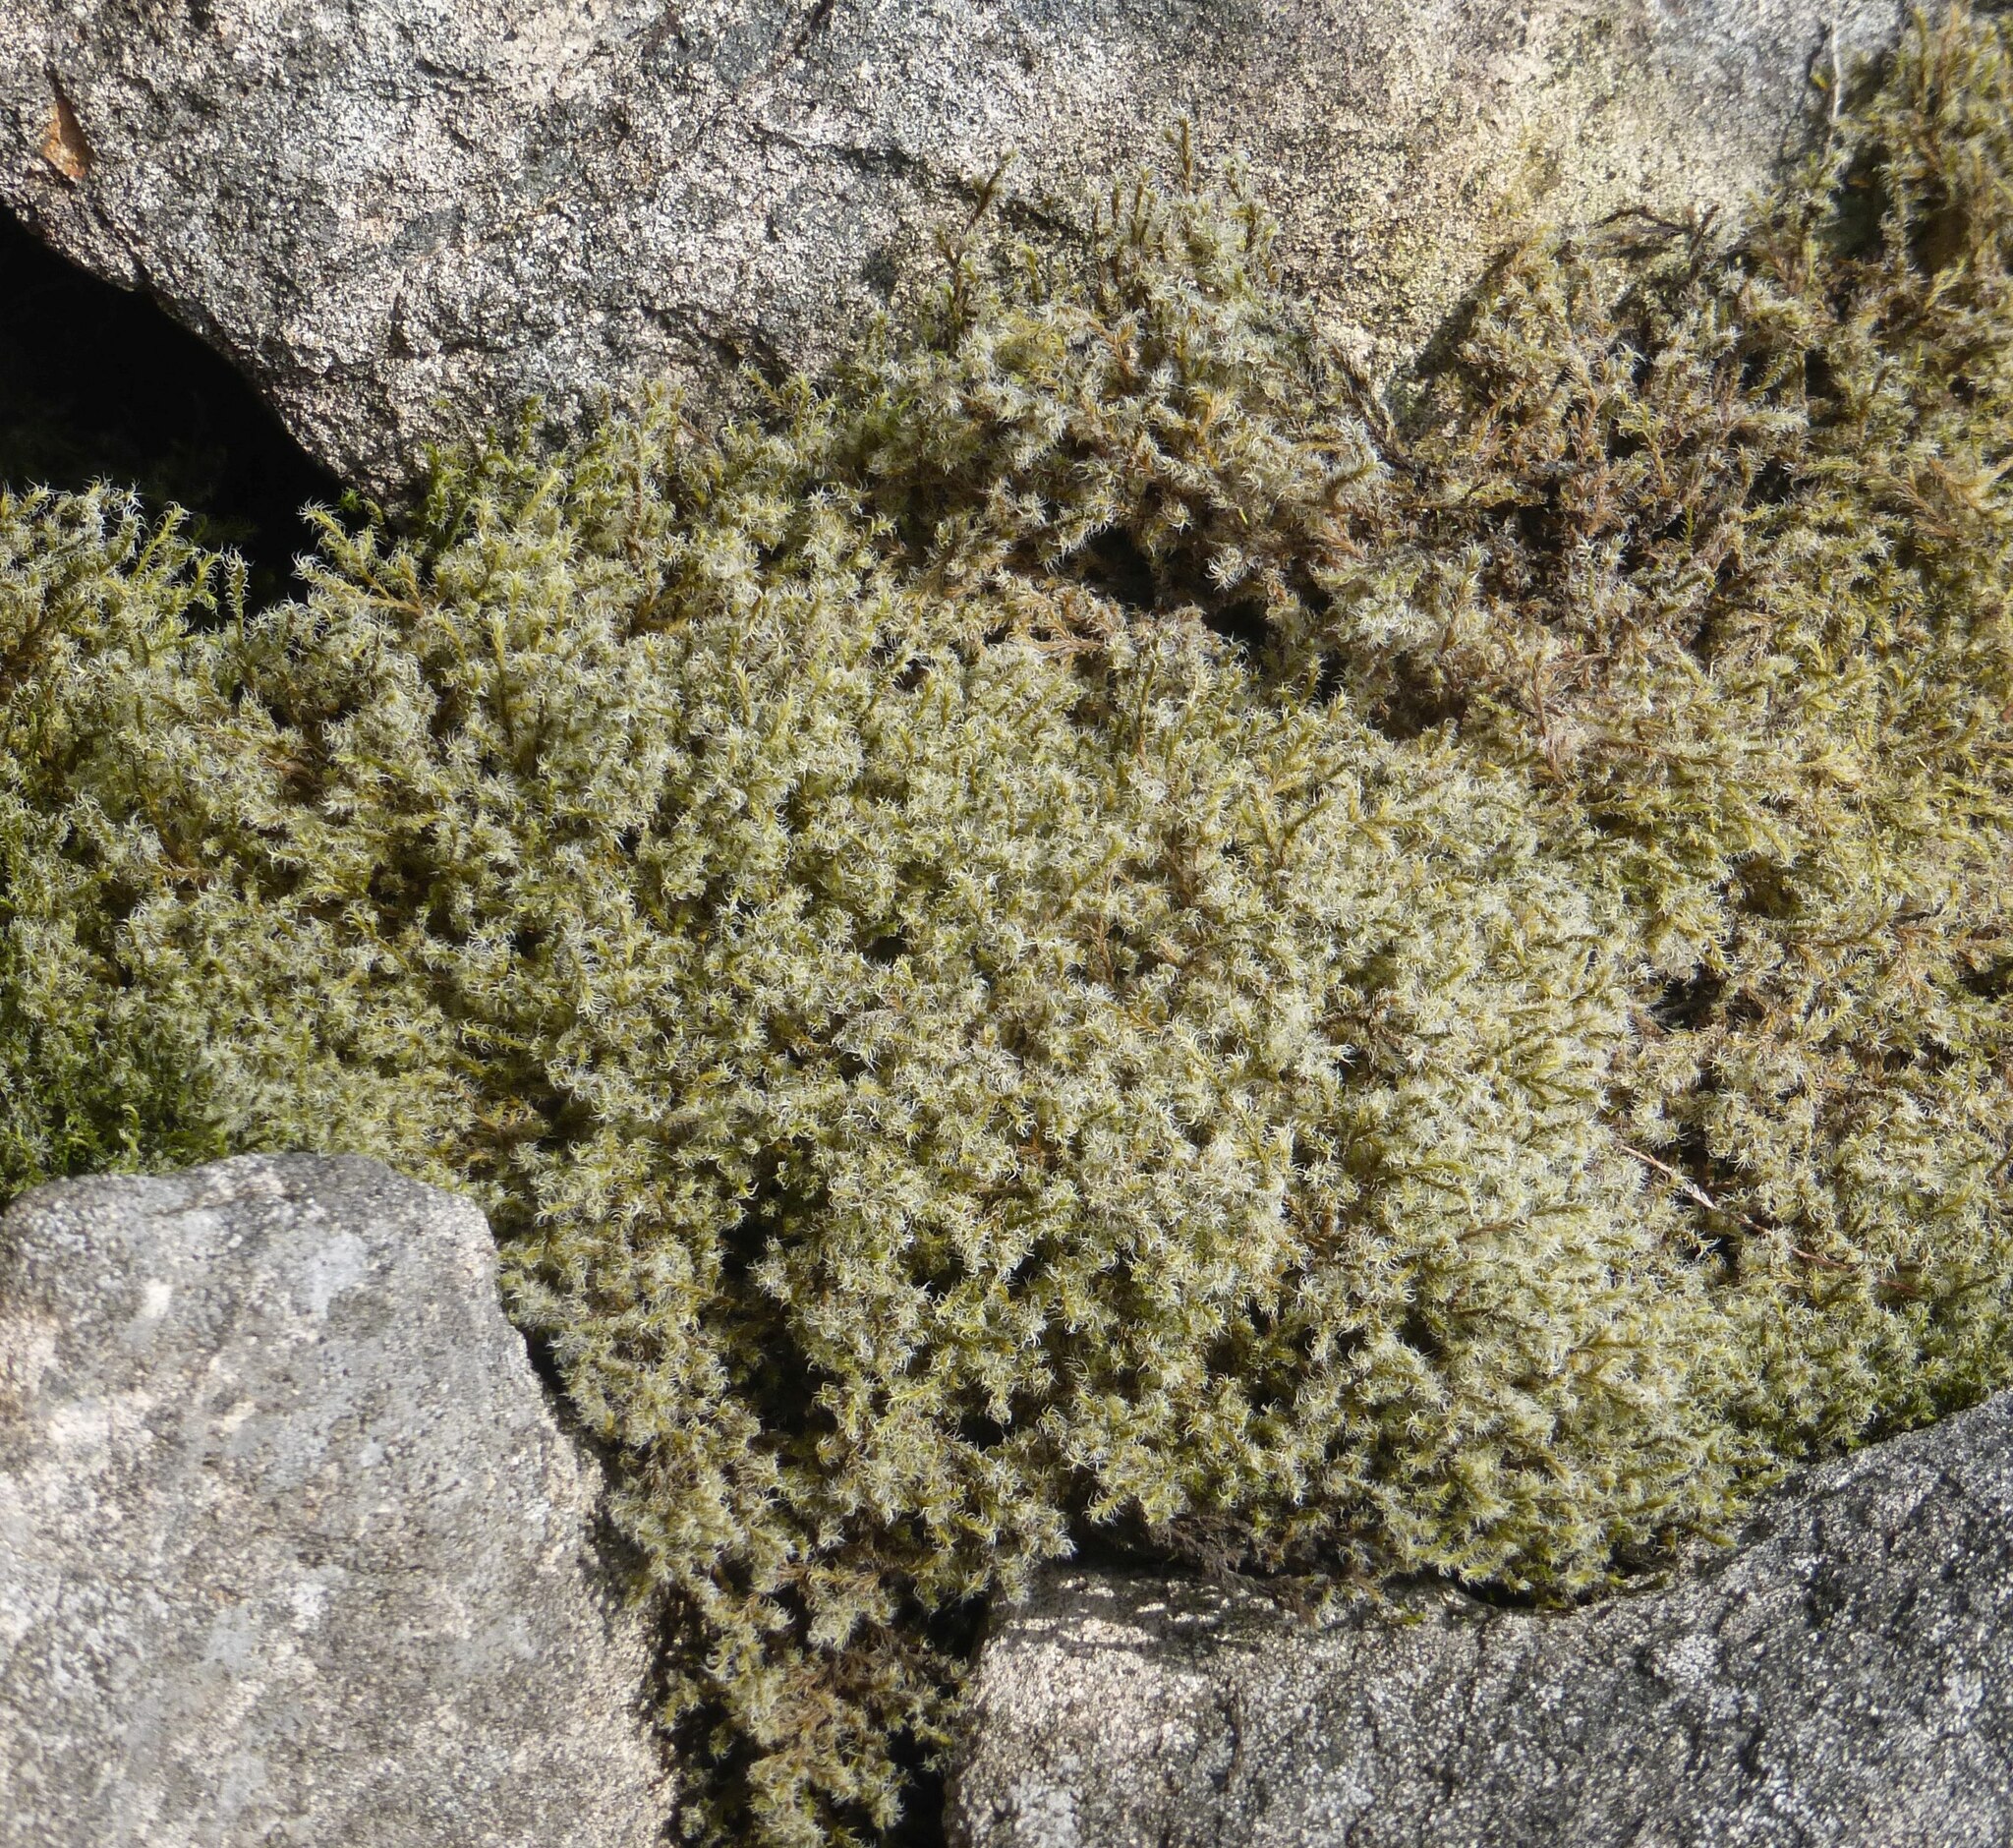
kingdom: Plantae
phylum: Bryophyta
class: Bryopsida
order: Grimmiales
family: Grimmiaceae
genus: Racomitrium
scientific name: Racomitrium lanuginosum
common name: Hoary rock moss
